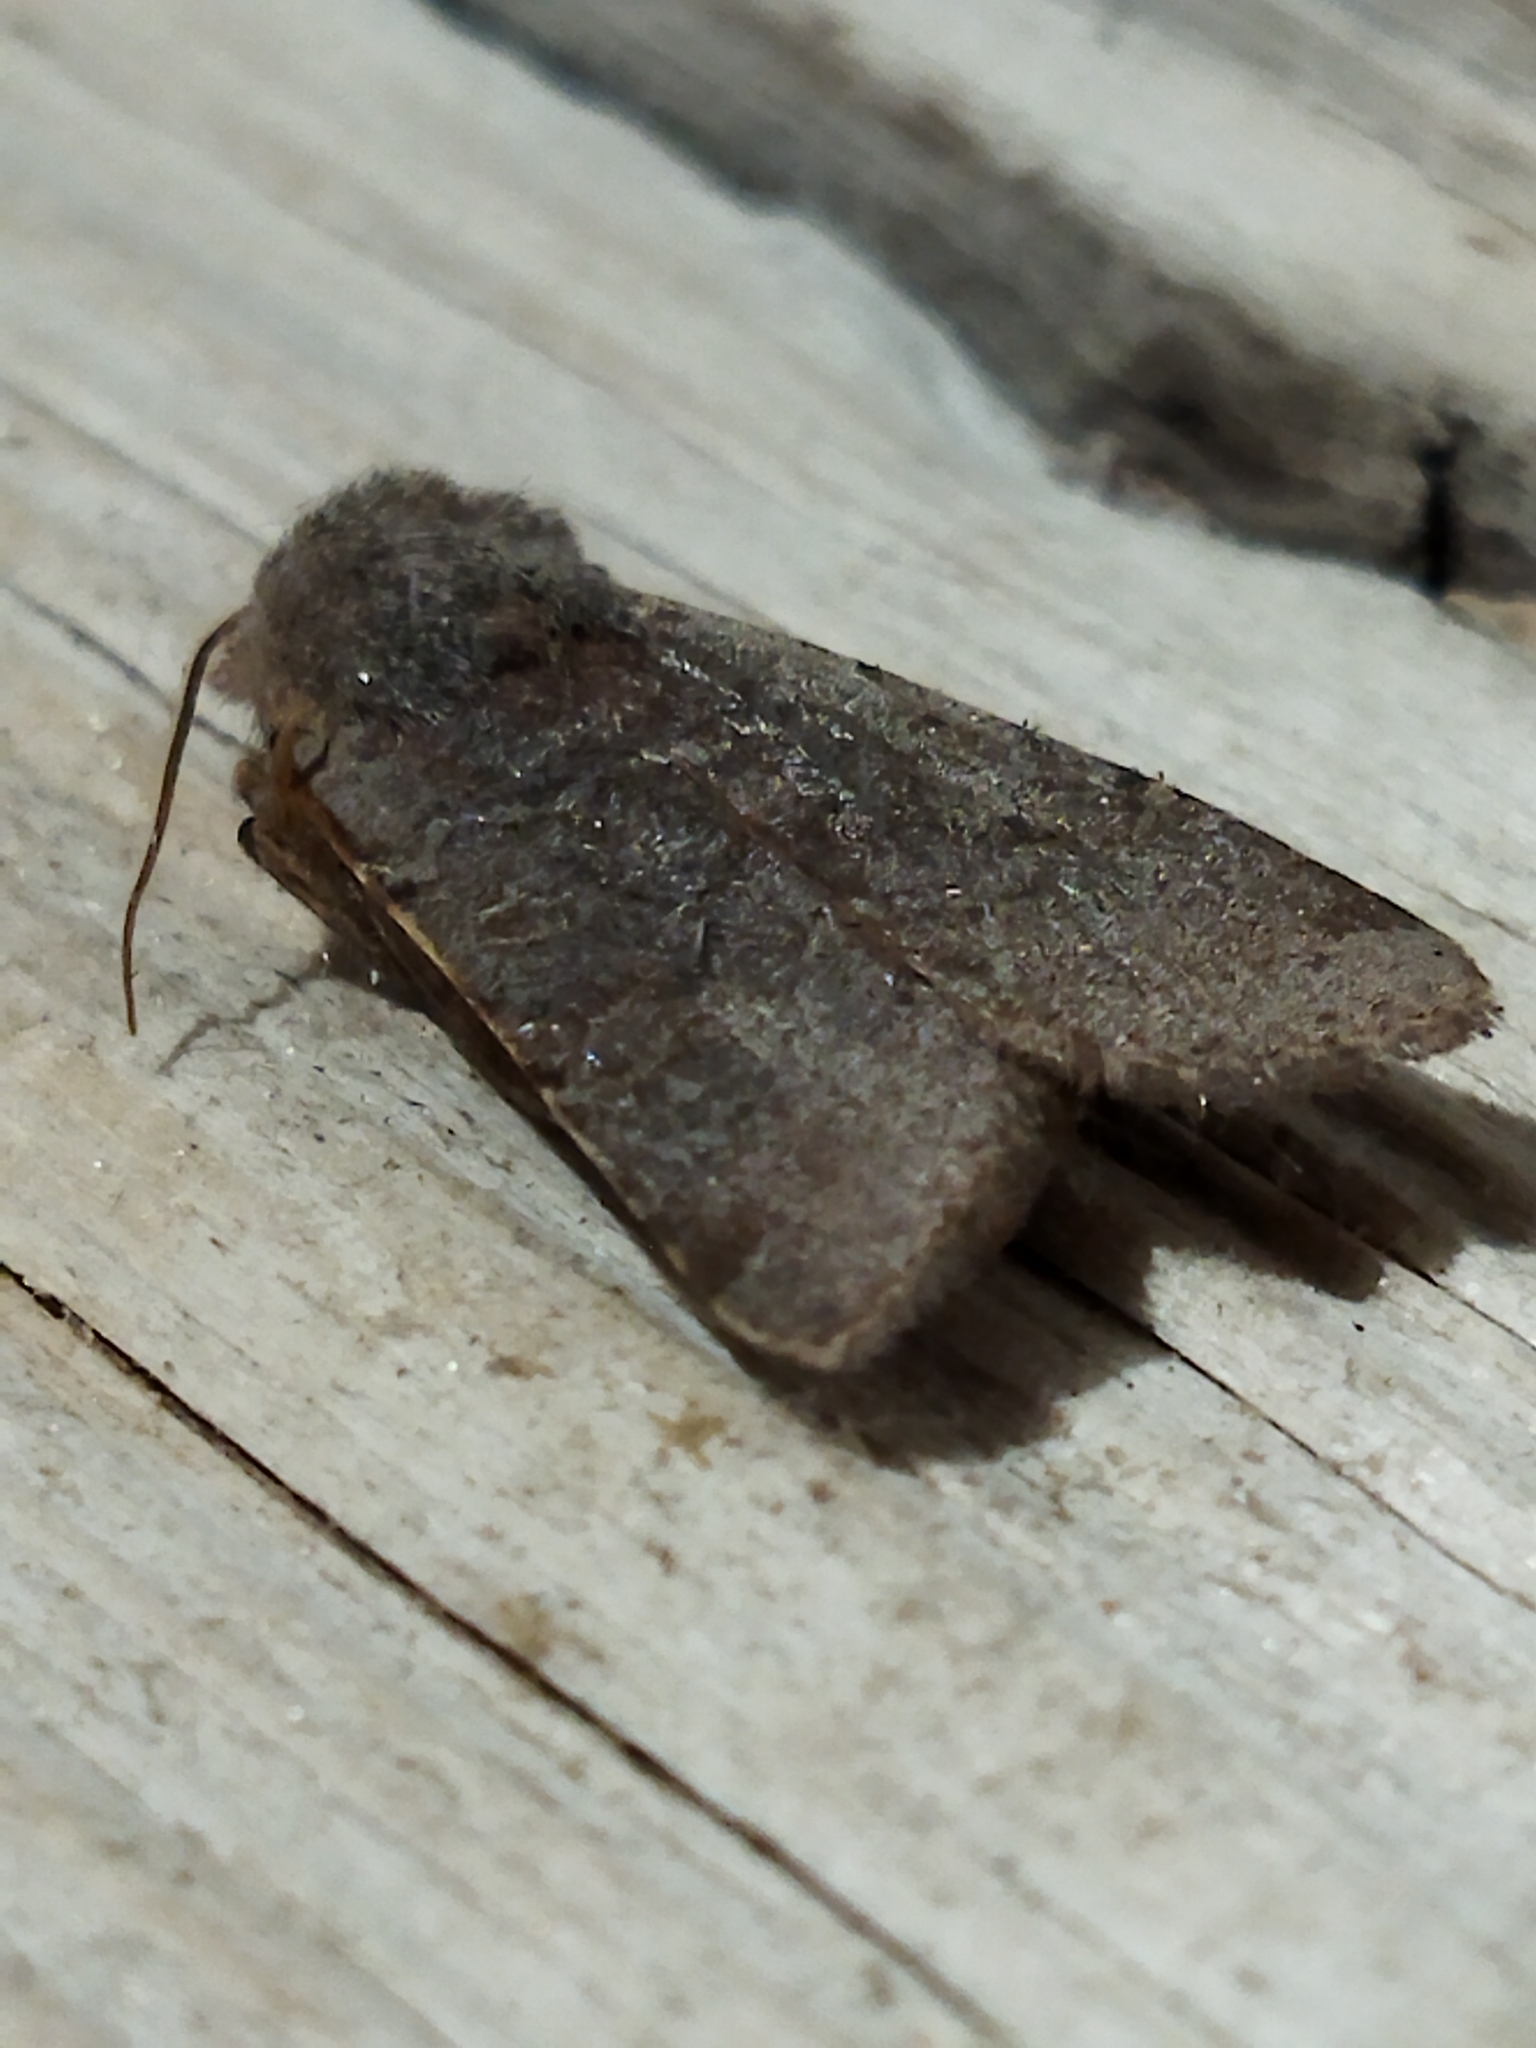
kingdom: Animalia
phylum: Arthropoda
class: Insecta
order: Lepidoptera
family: Noctuidae
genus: Agrochola
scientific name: Agrochola lychnidis
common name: Beaded chestnut
